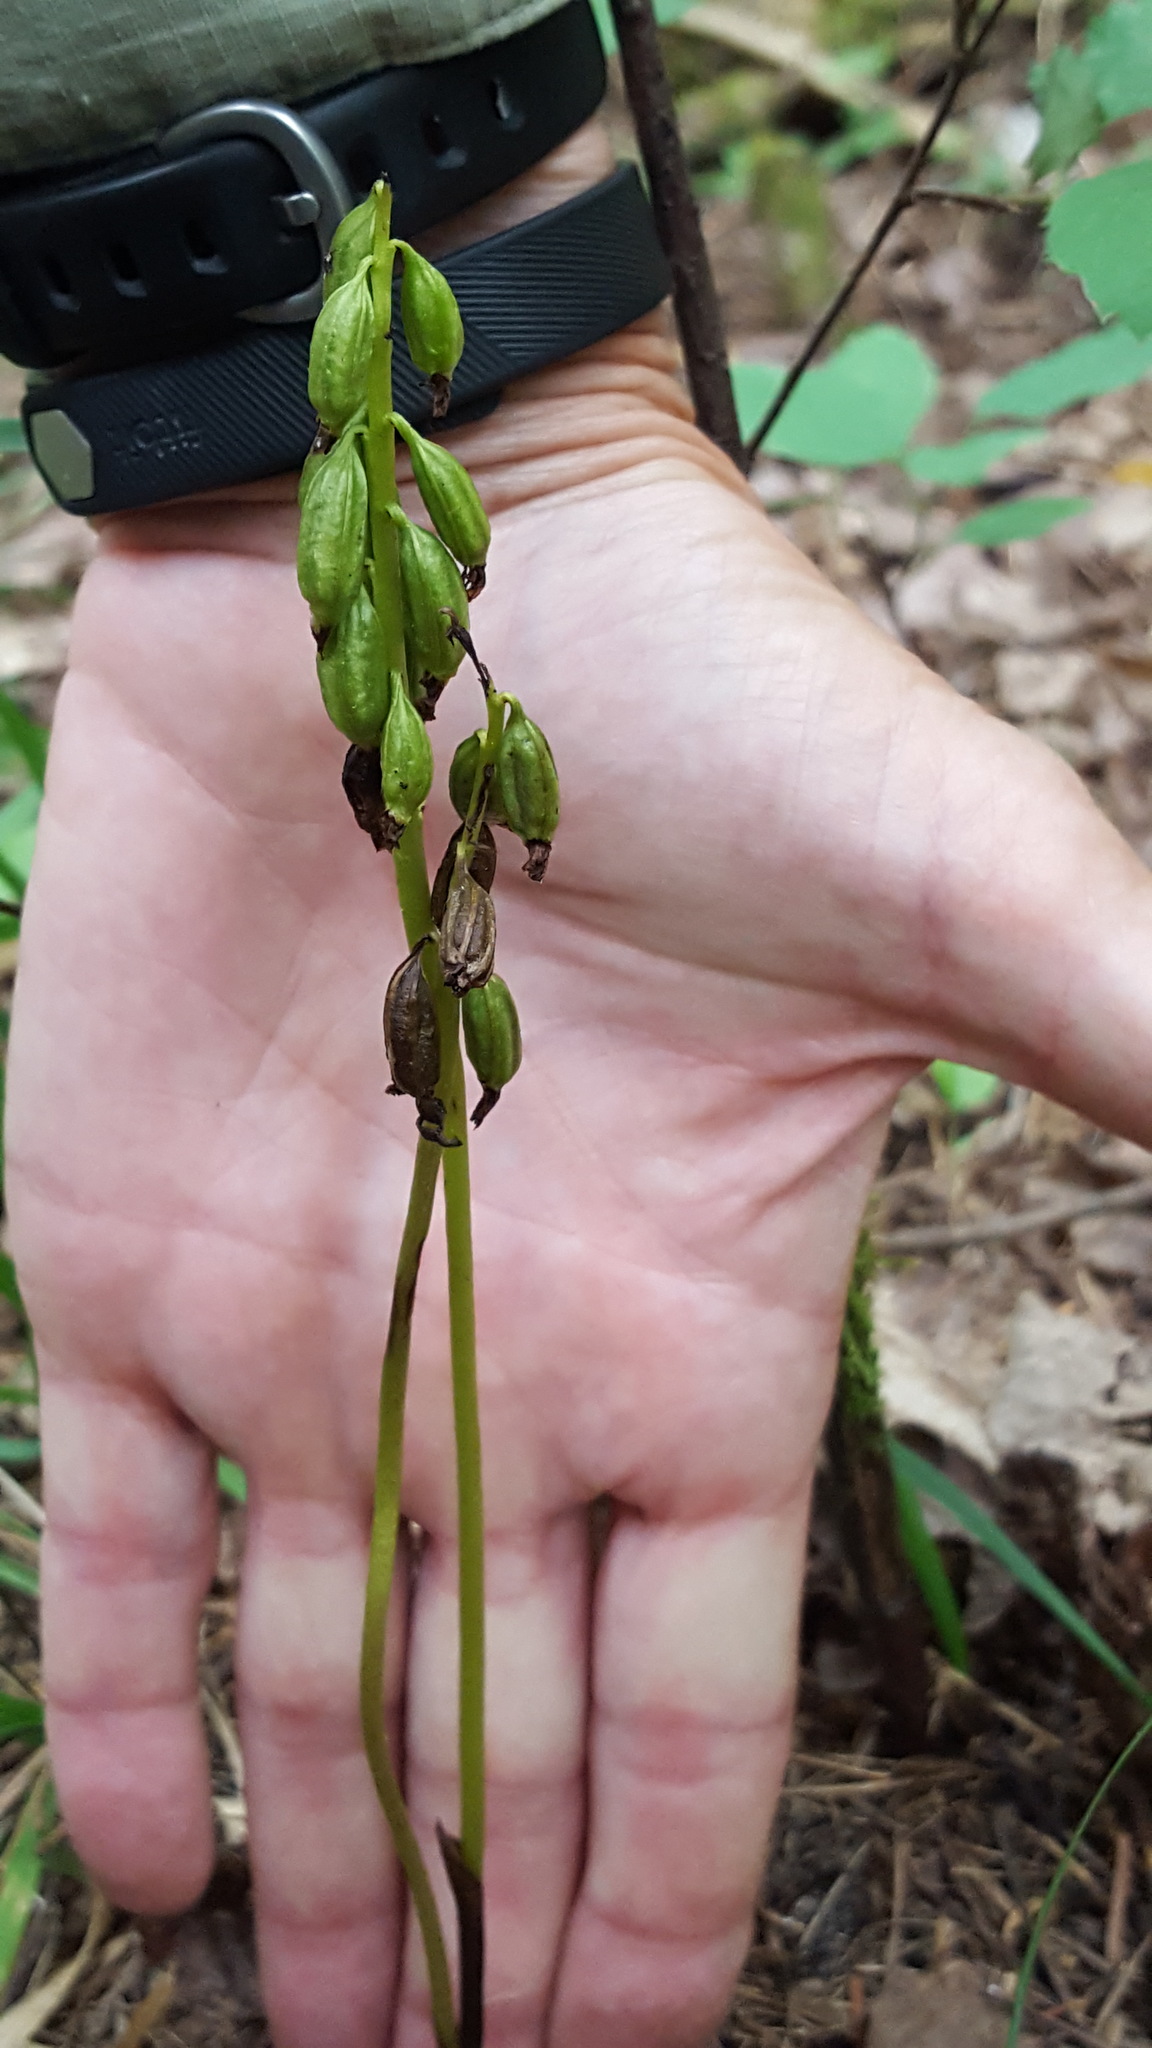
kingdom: Plantae
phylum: Tracheophyta
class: Liliopsida
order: Asparagales
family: Orchidaceae
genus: Corallorhiza
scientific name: Corallorhiza trifida
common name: Yellow coralroot
